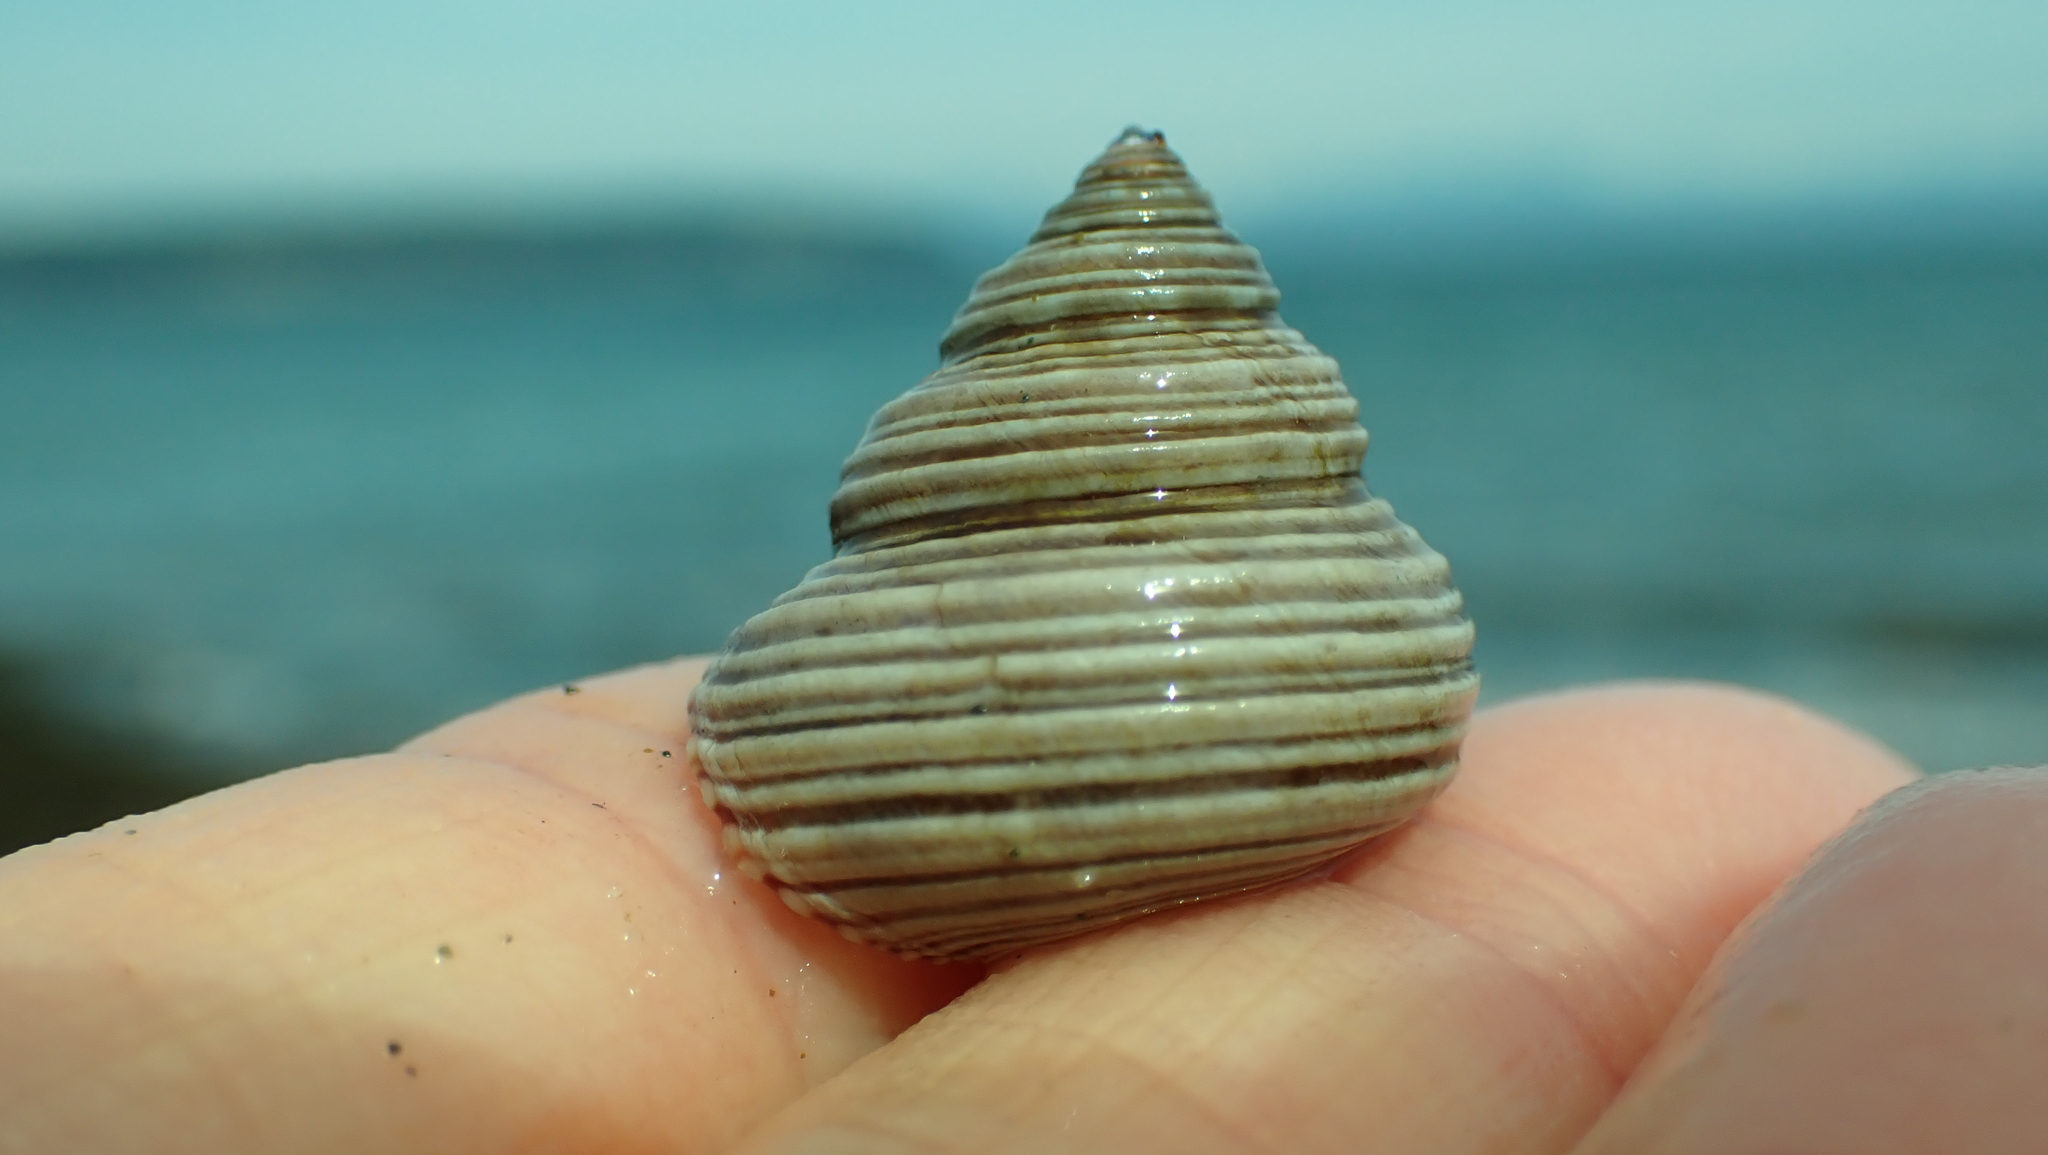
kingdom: Animalia
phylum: Mollusca
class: Gastropoda
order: Trochida
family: Calliostomatidae
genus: Calliostoma
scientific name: Calliostoma ligatum
